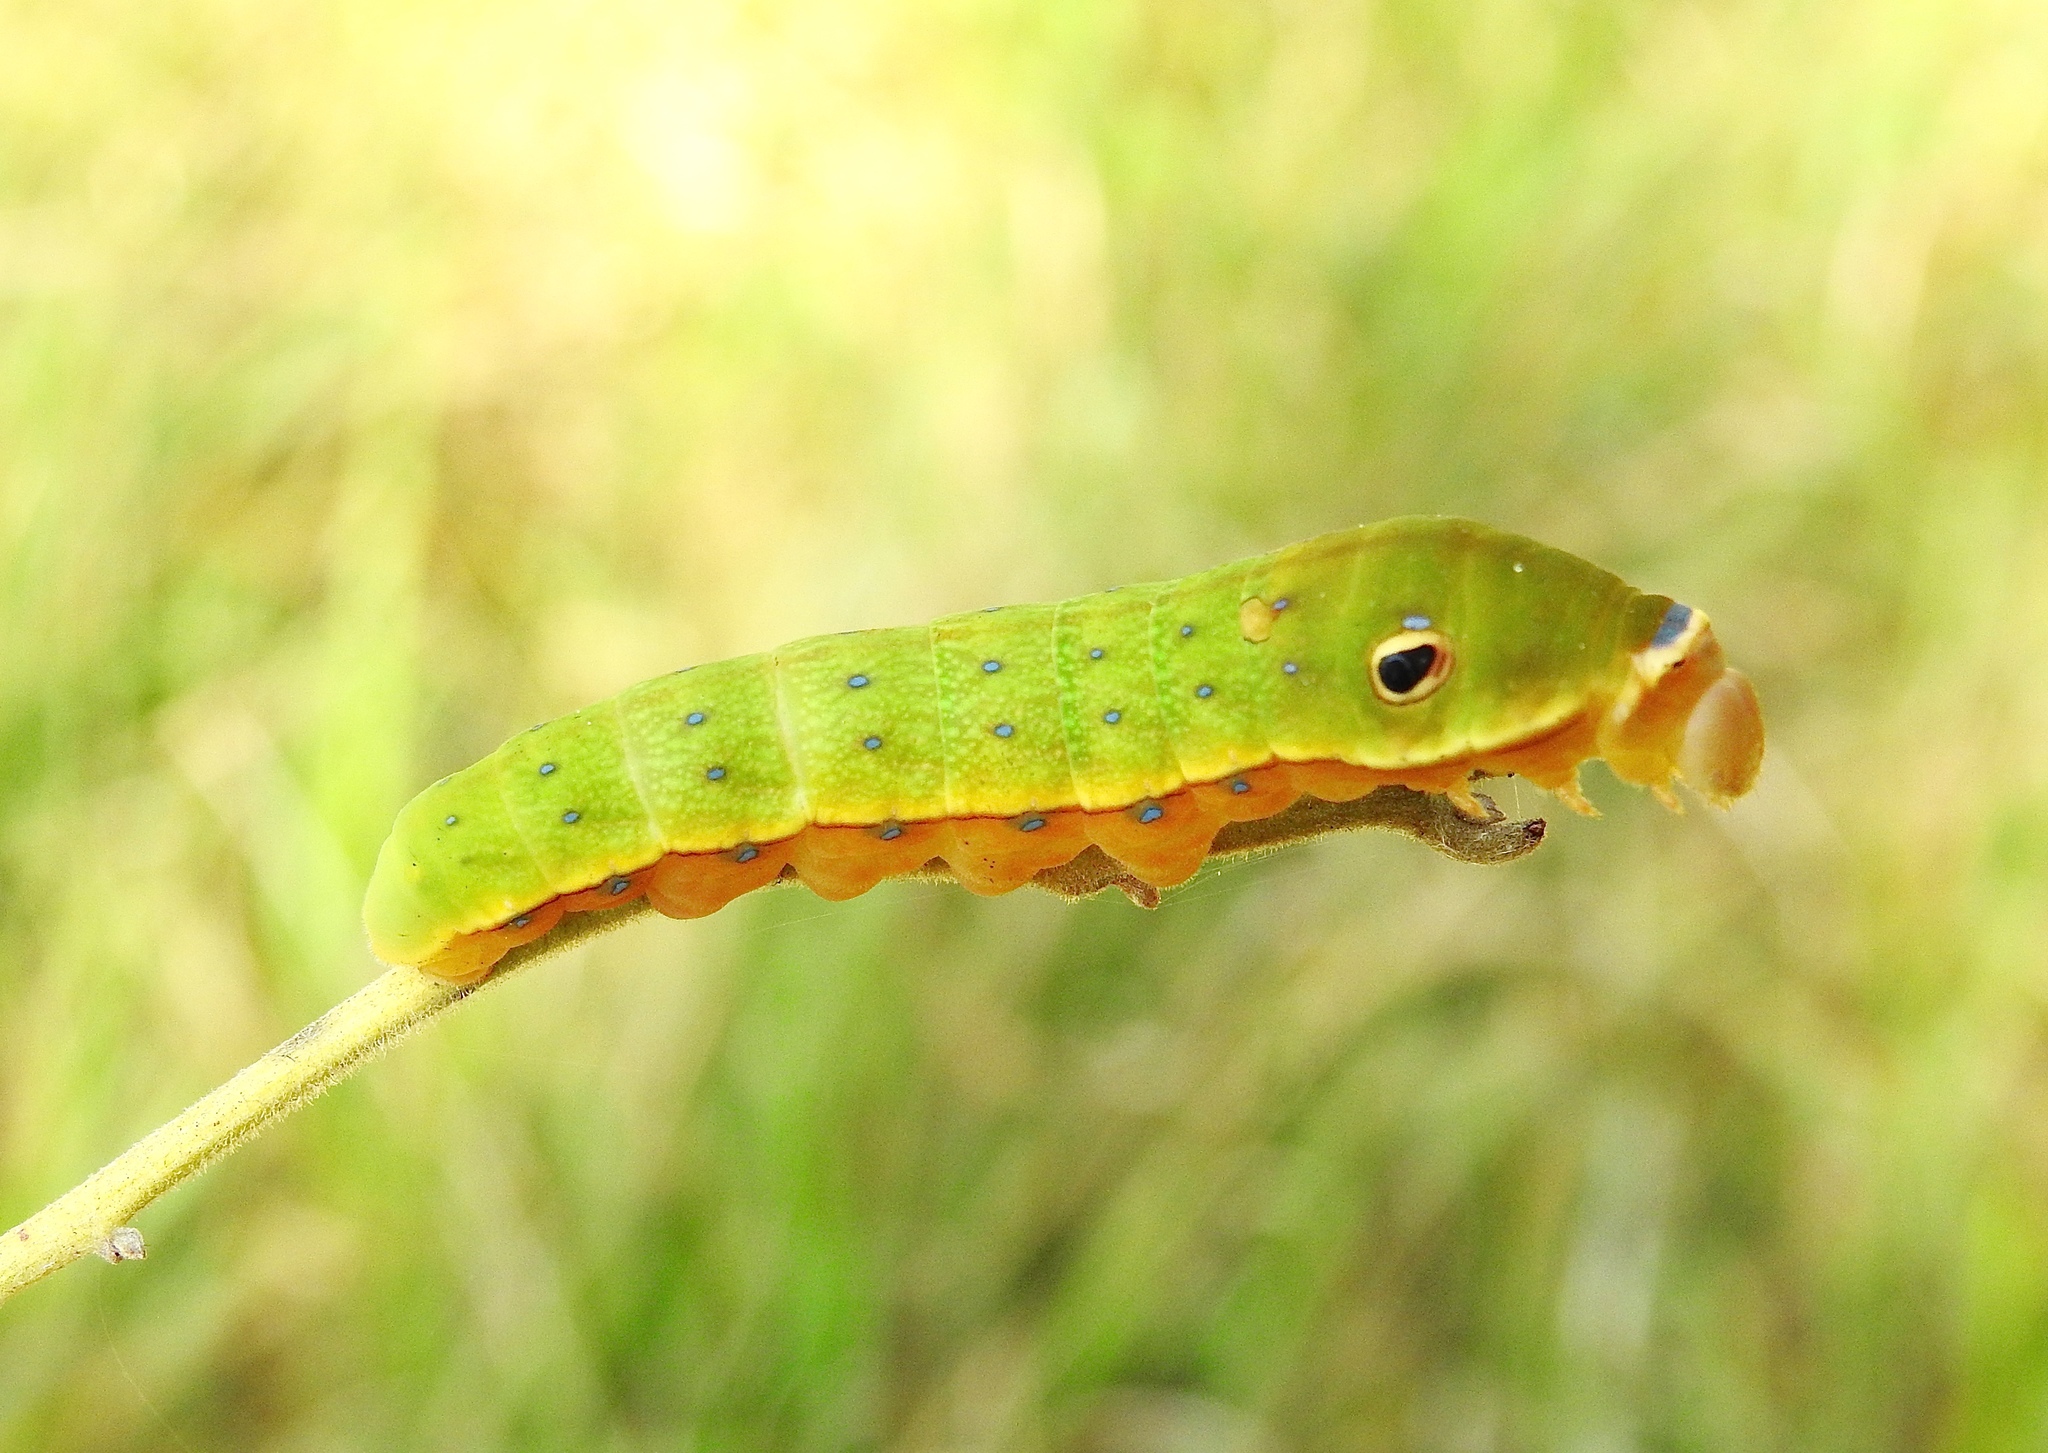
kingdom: Animalia
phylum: Arthropoda
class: Insecta
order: Lepidoptera
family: Papilionidae
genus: Papilio
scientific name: Papilio palamedes
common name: Palamedes swallowtail
